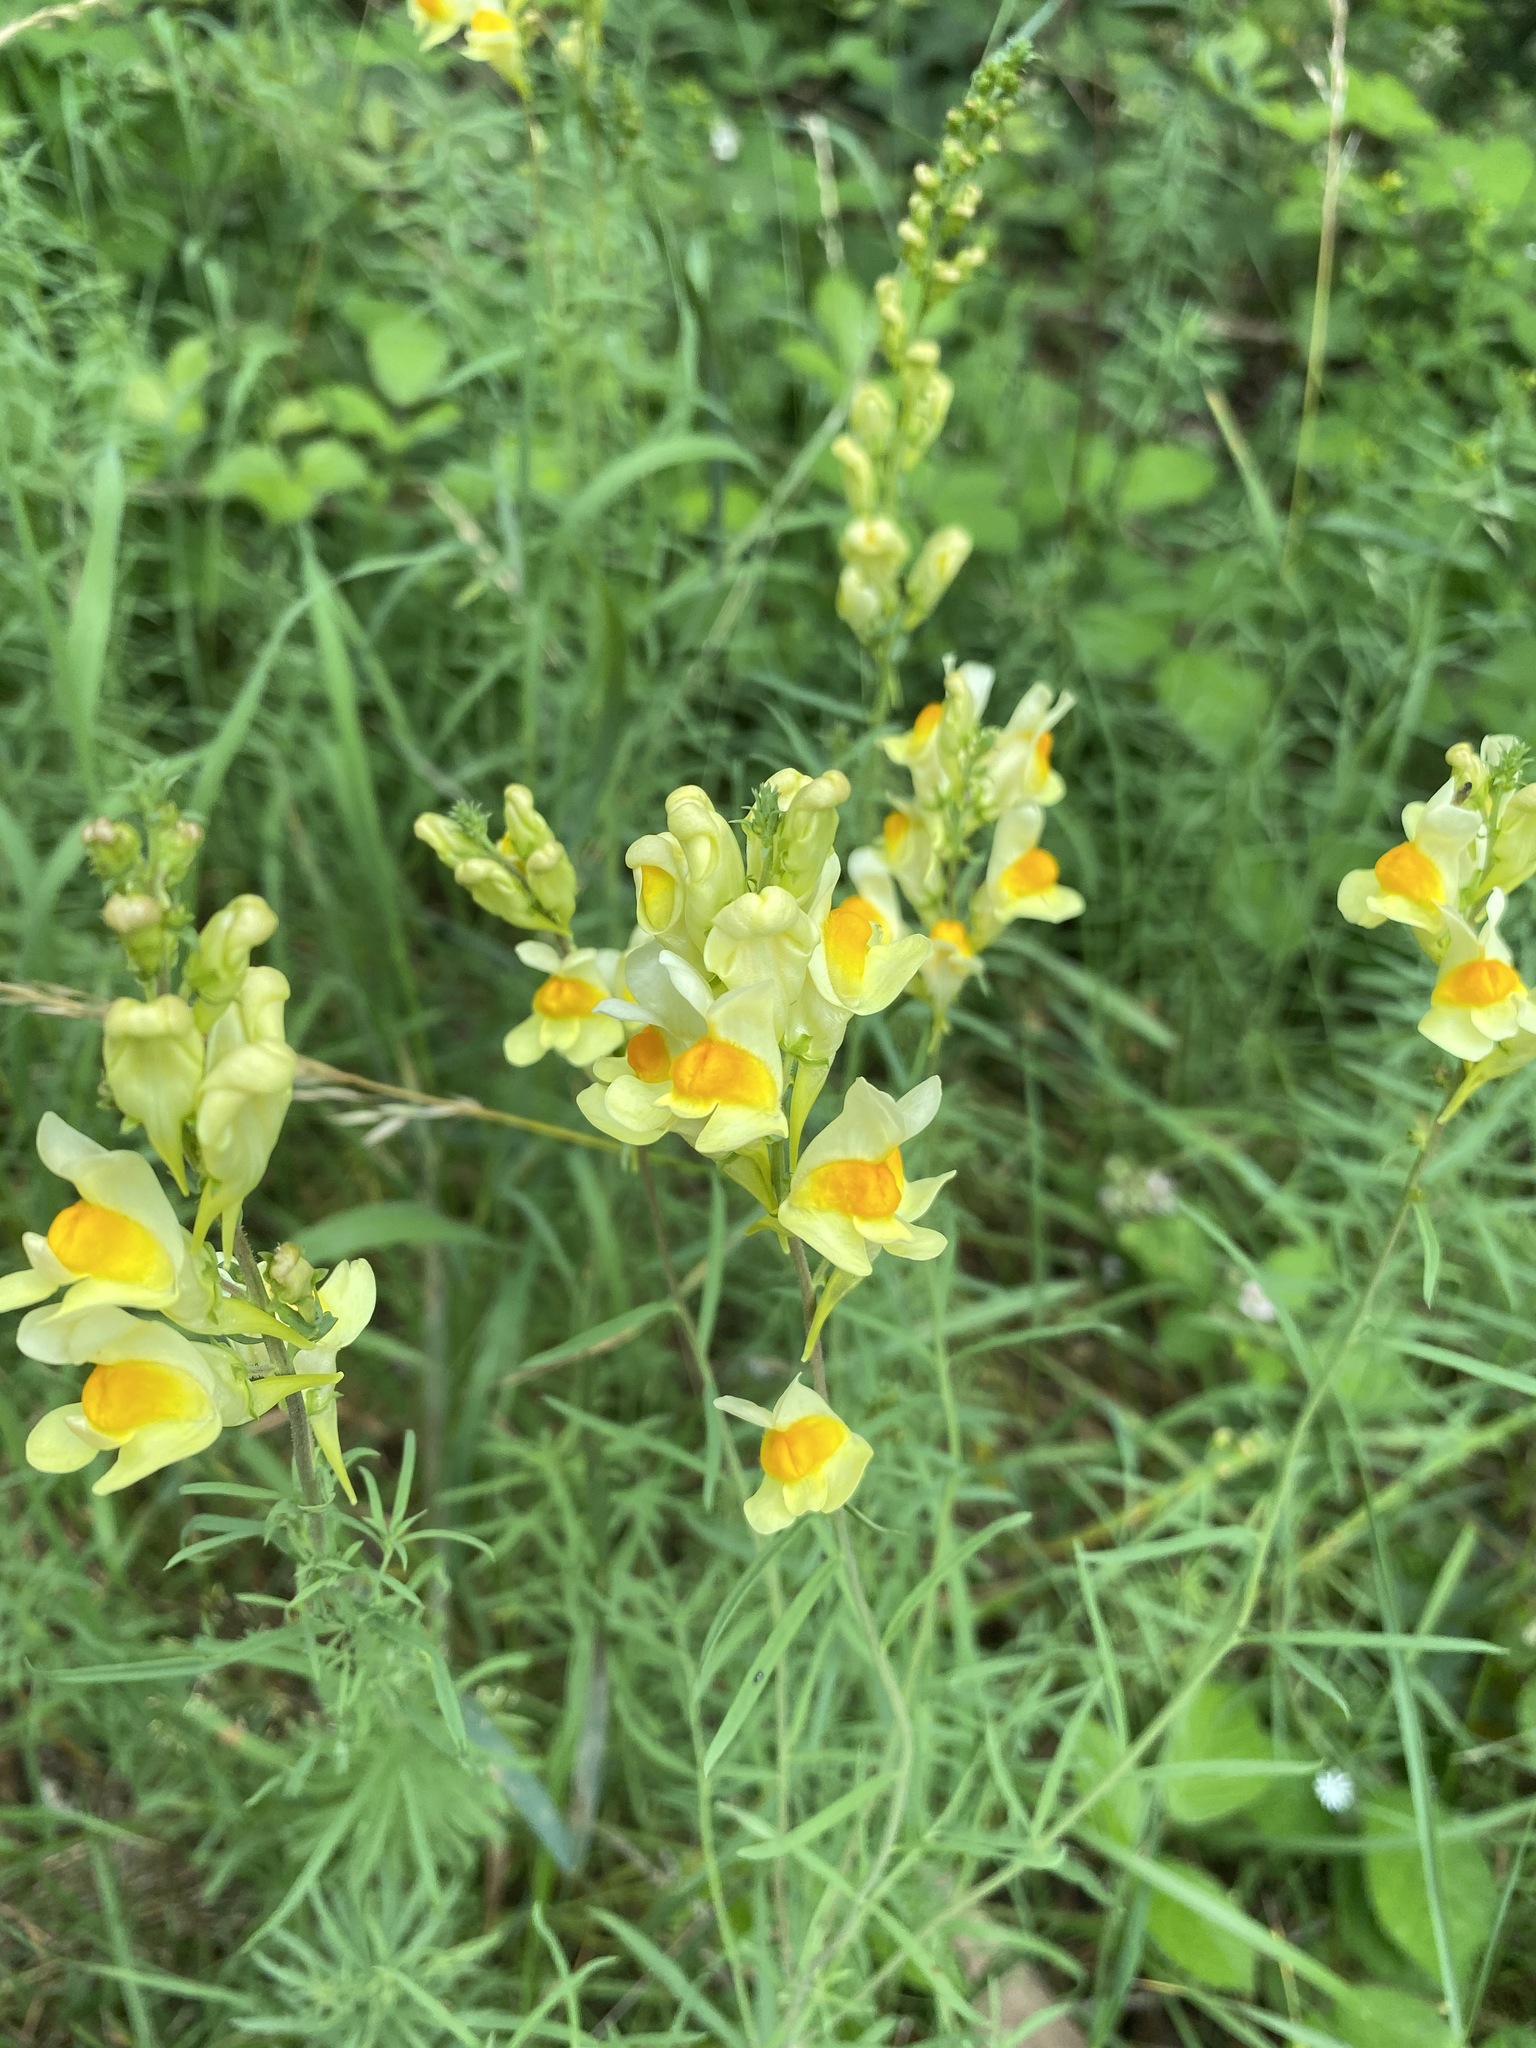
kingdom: Plantae
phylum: Tracheophyta
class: Magnoliopsida
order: Lamiales
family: Plantaginaceae
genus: Linaria
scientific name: Linaria vulgaris
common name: Butter and eggs
